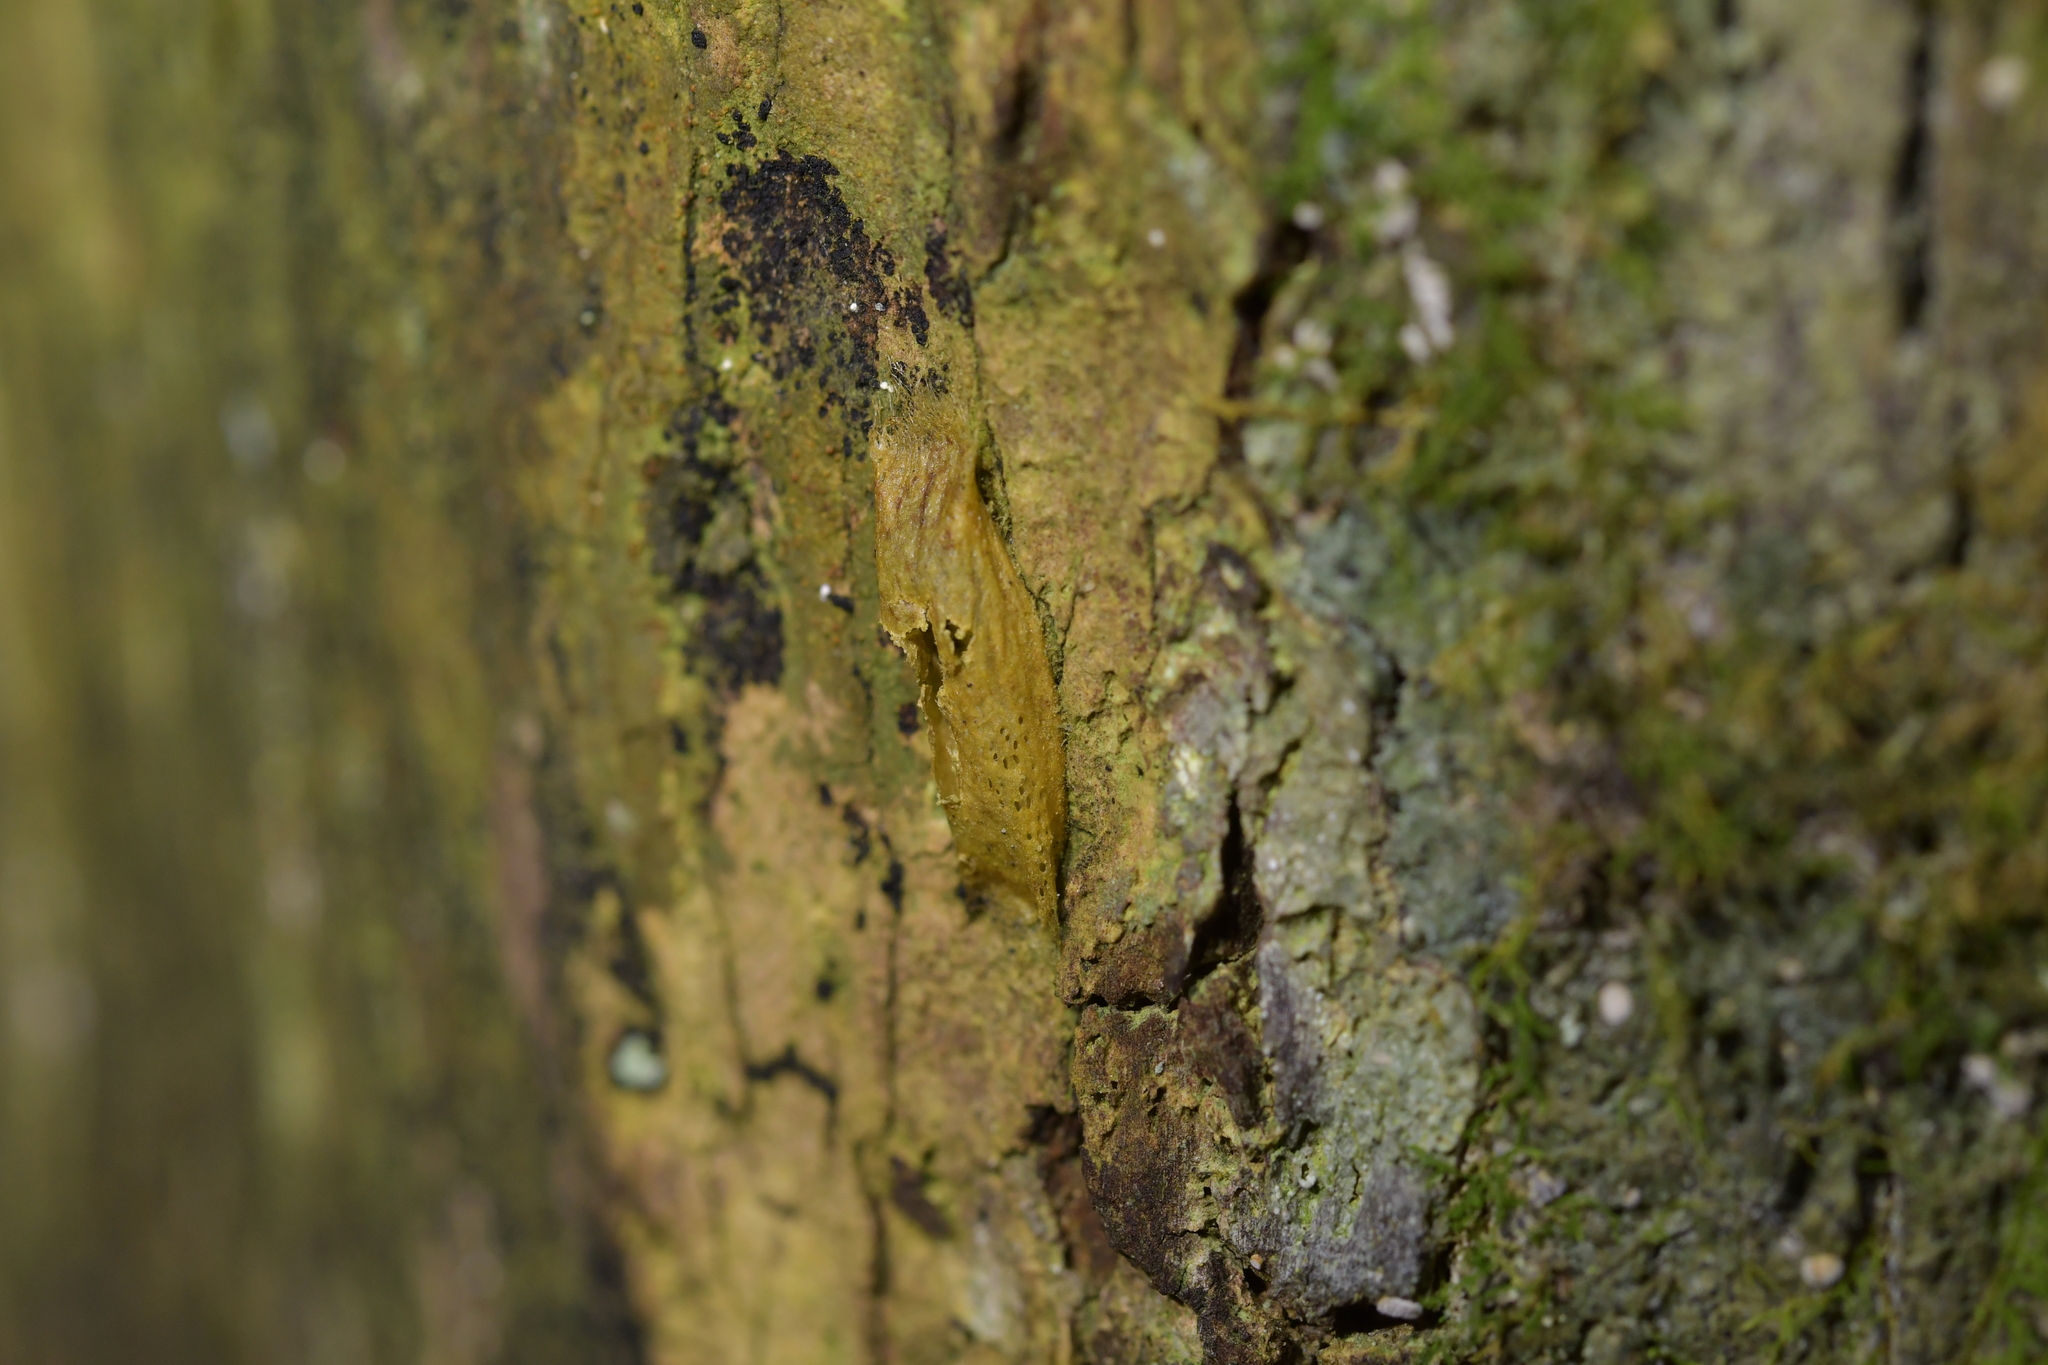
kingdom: Animalia
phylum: Arthropoda
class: Insecta
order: Lepidoptera
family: Plutellidae
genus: Doxophyrtis
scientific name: Doxophyrtis hydrocosma
